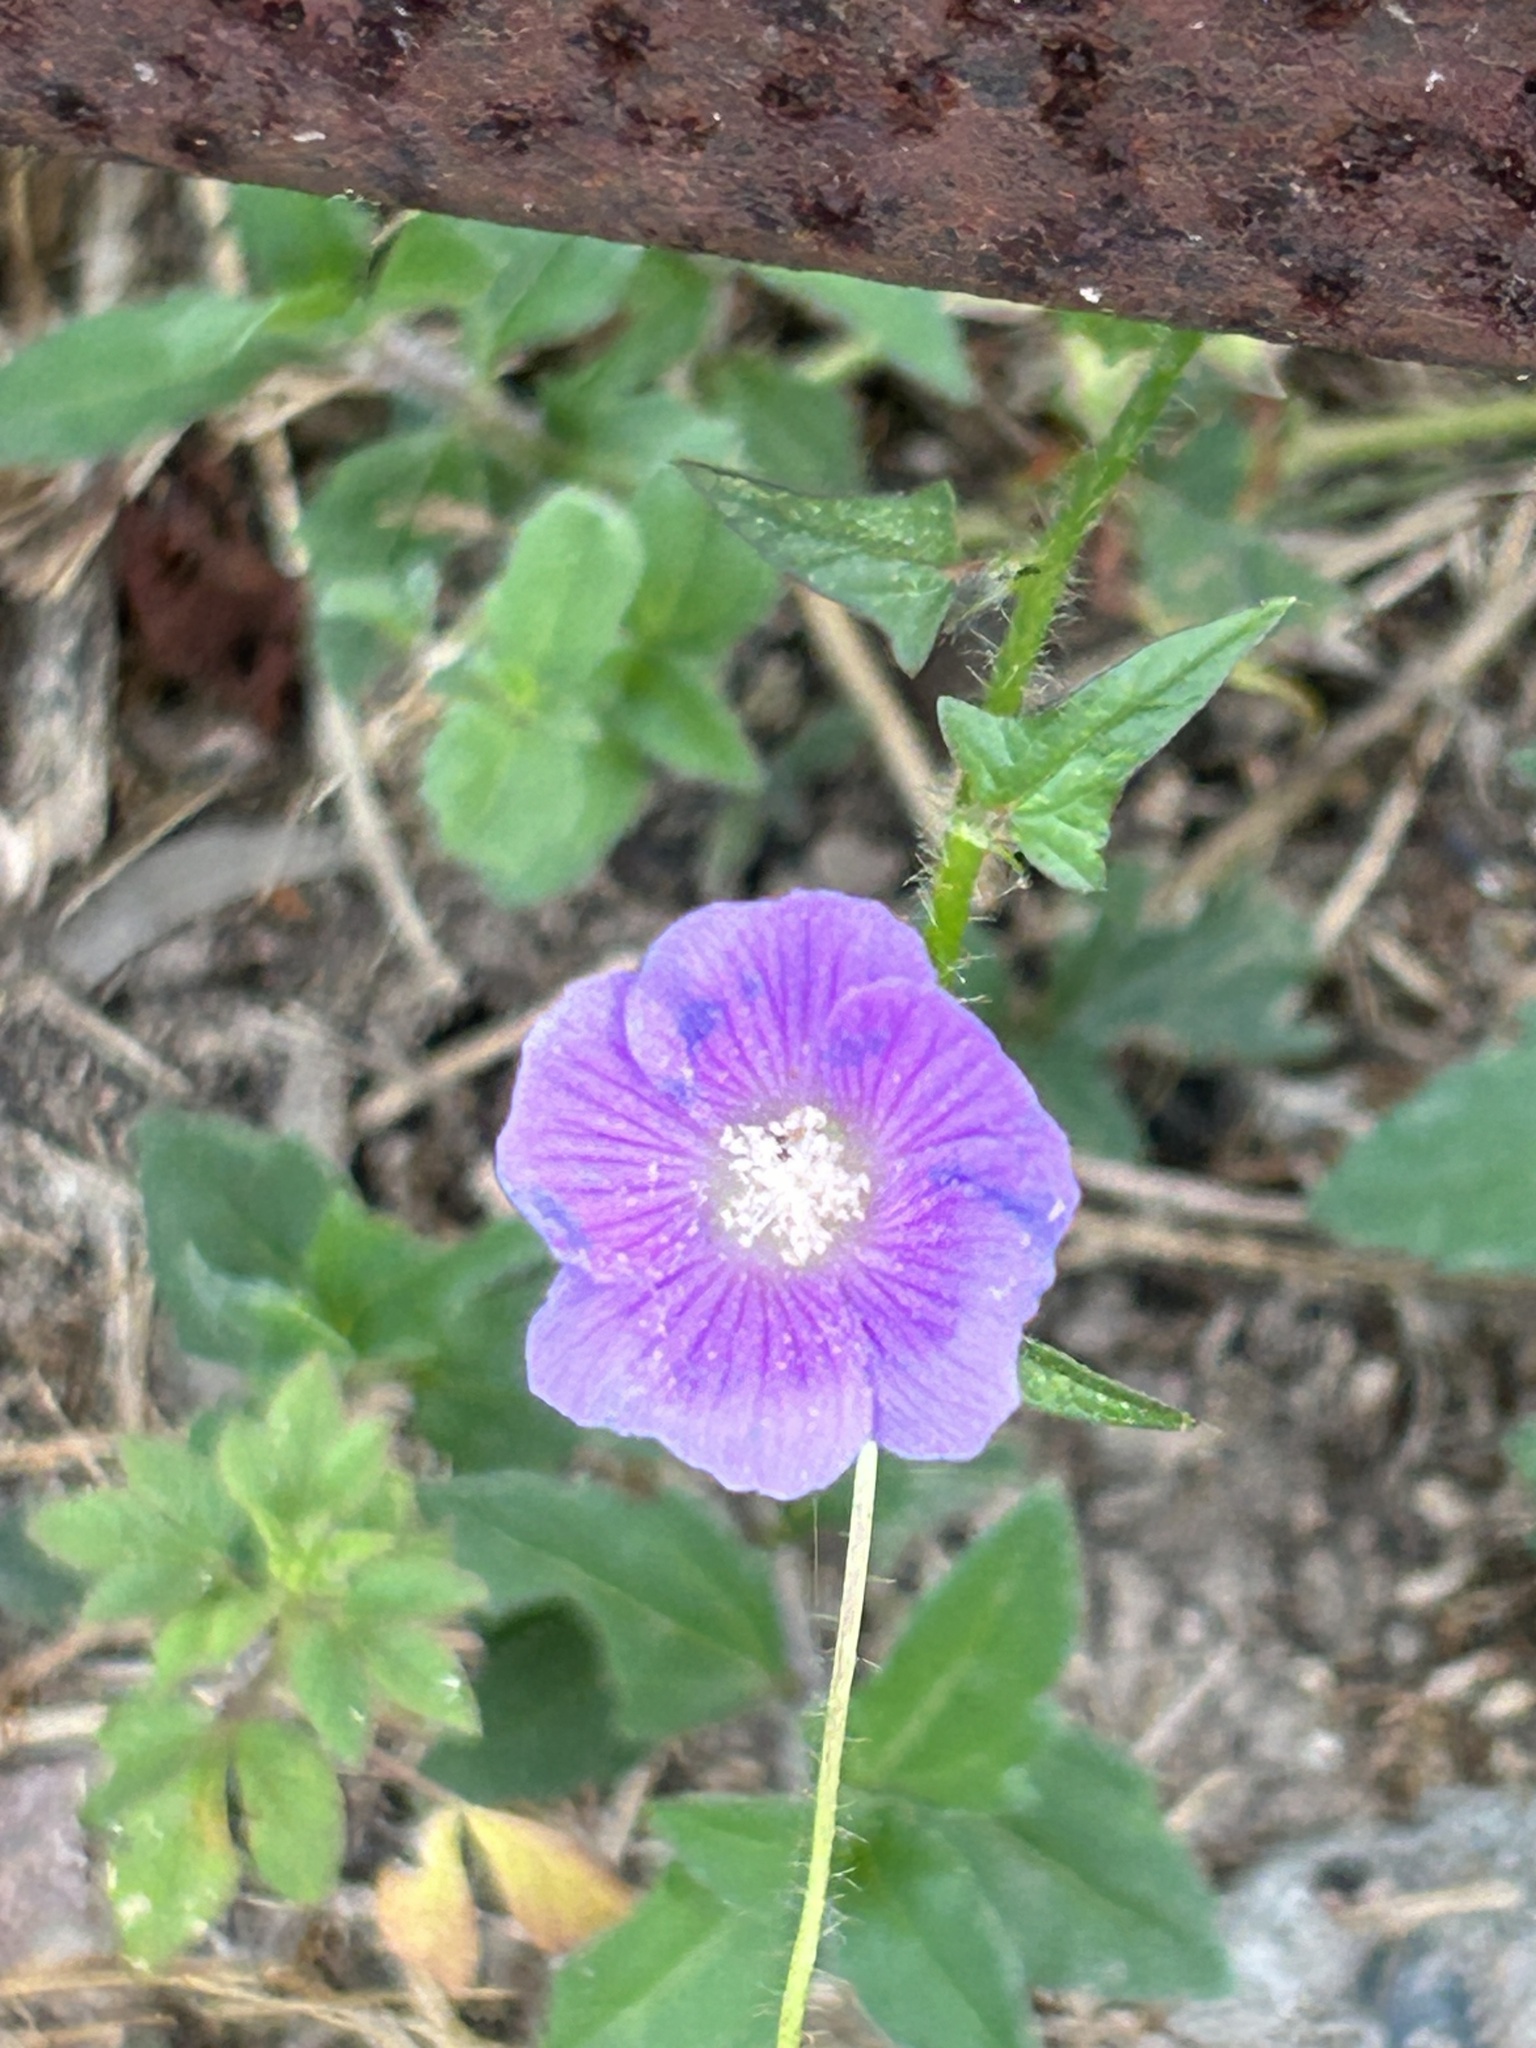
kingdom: Plantae
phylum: Tracheophyta
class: Magnoliopsida
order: Malvales
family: Malvaceae
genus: Anoda
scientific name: Anoda cristata
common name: Spurred anoda
